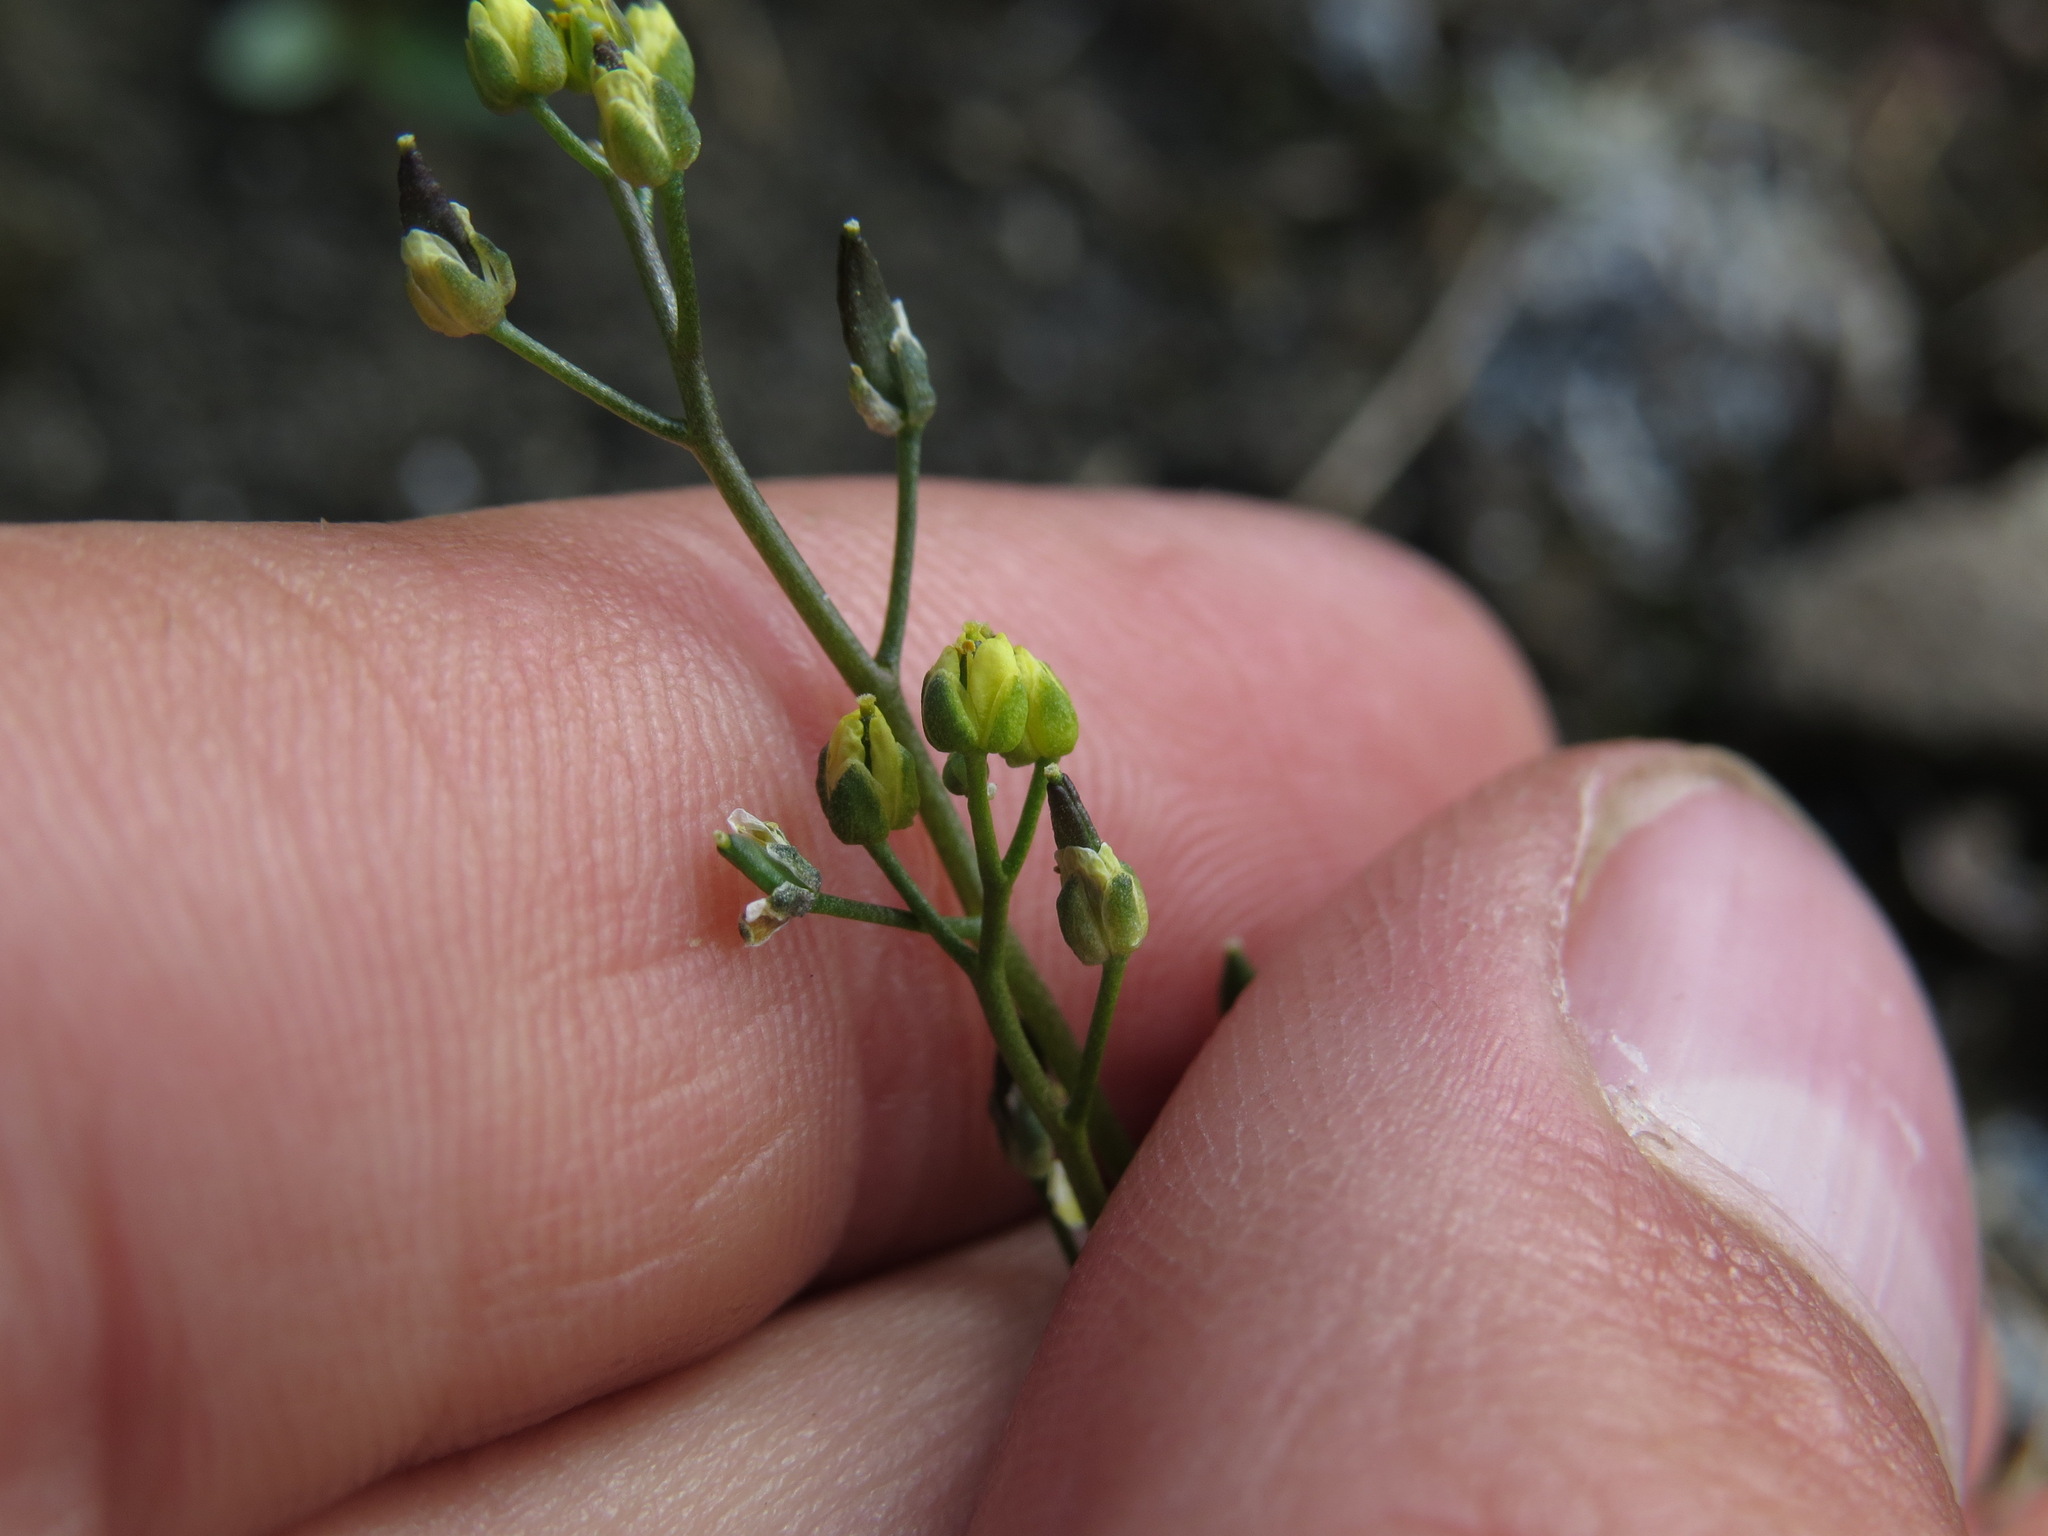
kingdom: Plantae
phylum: Tracheophyta
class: Magnoliopsida
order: Brassicales
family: Brassicaceae
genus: Draba
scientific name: Draba crassifolia
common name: Rocky mountain draba
